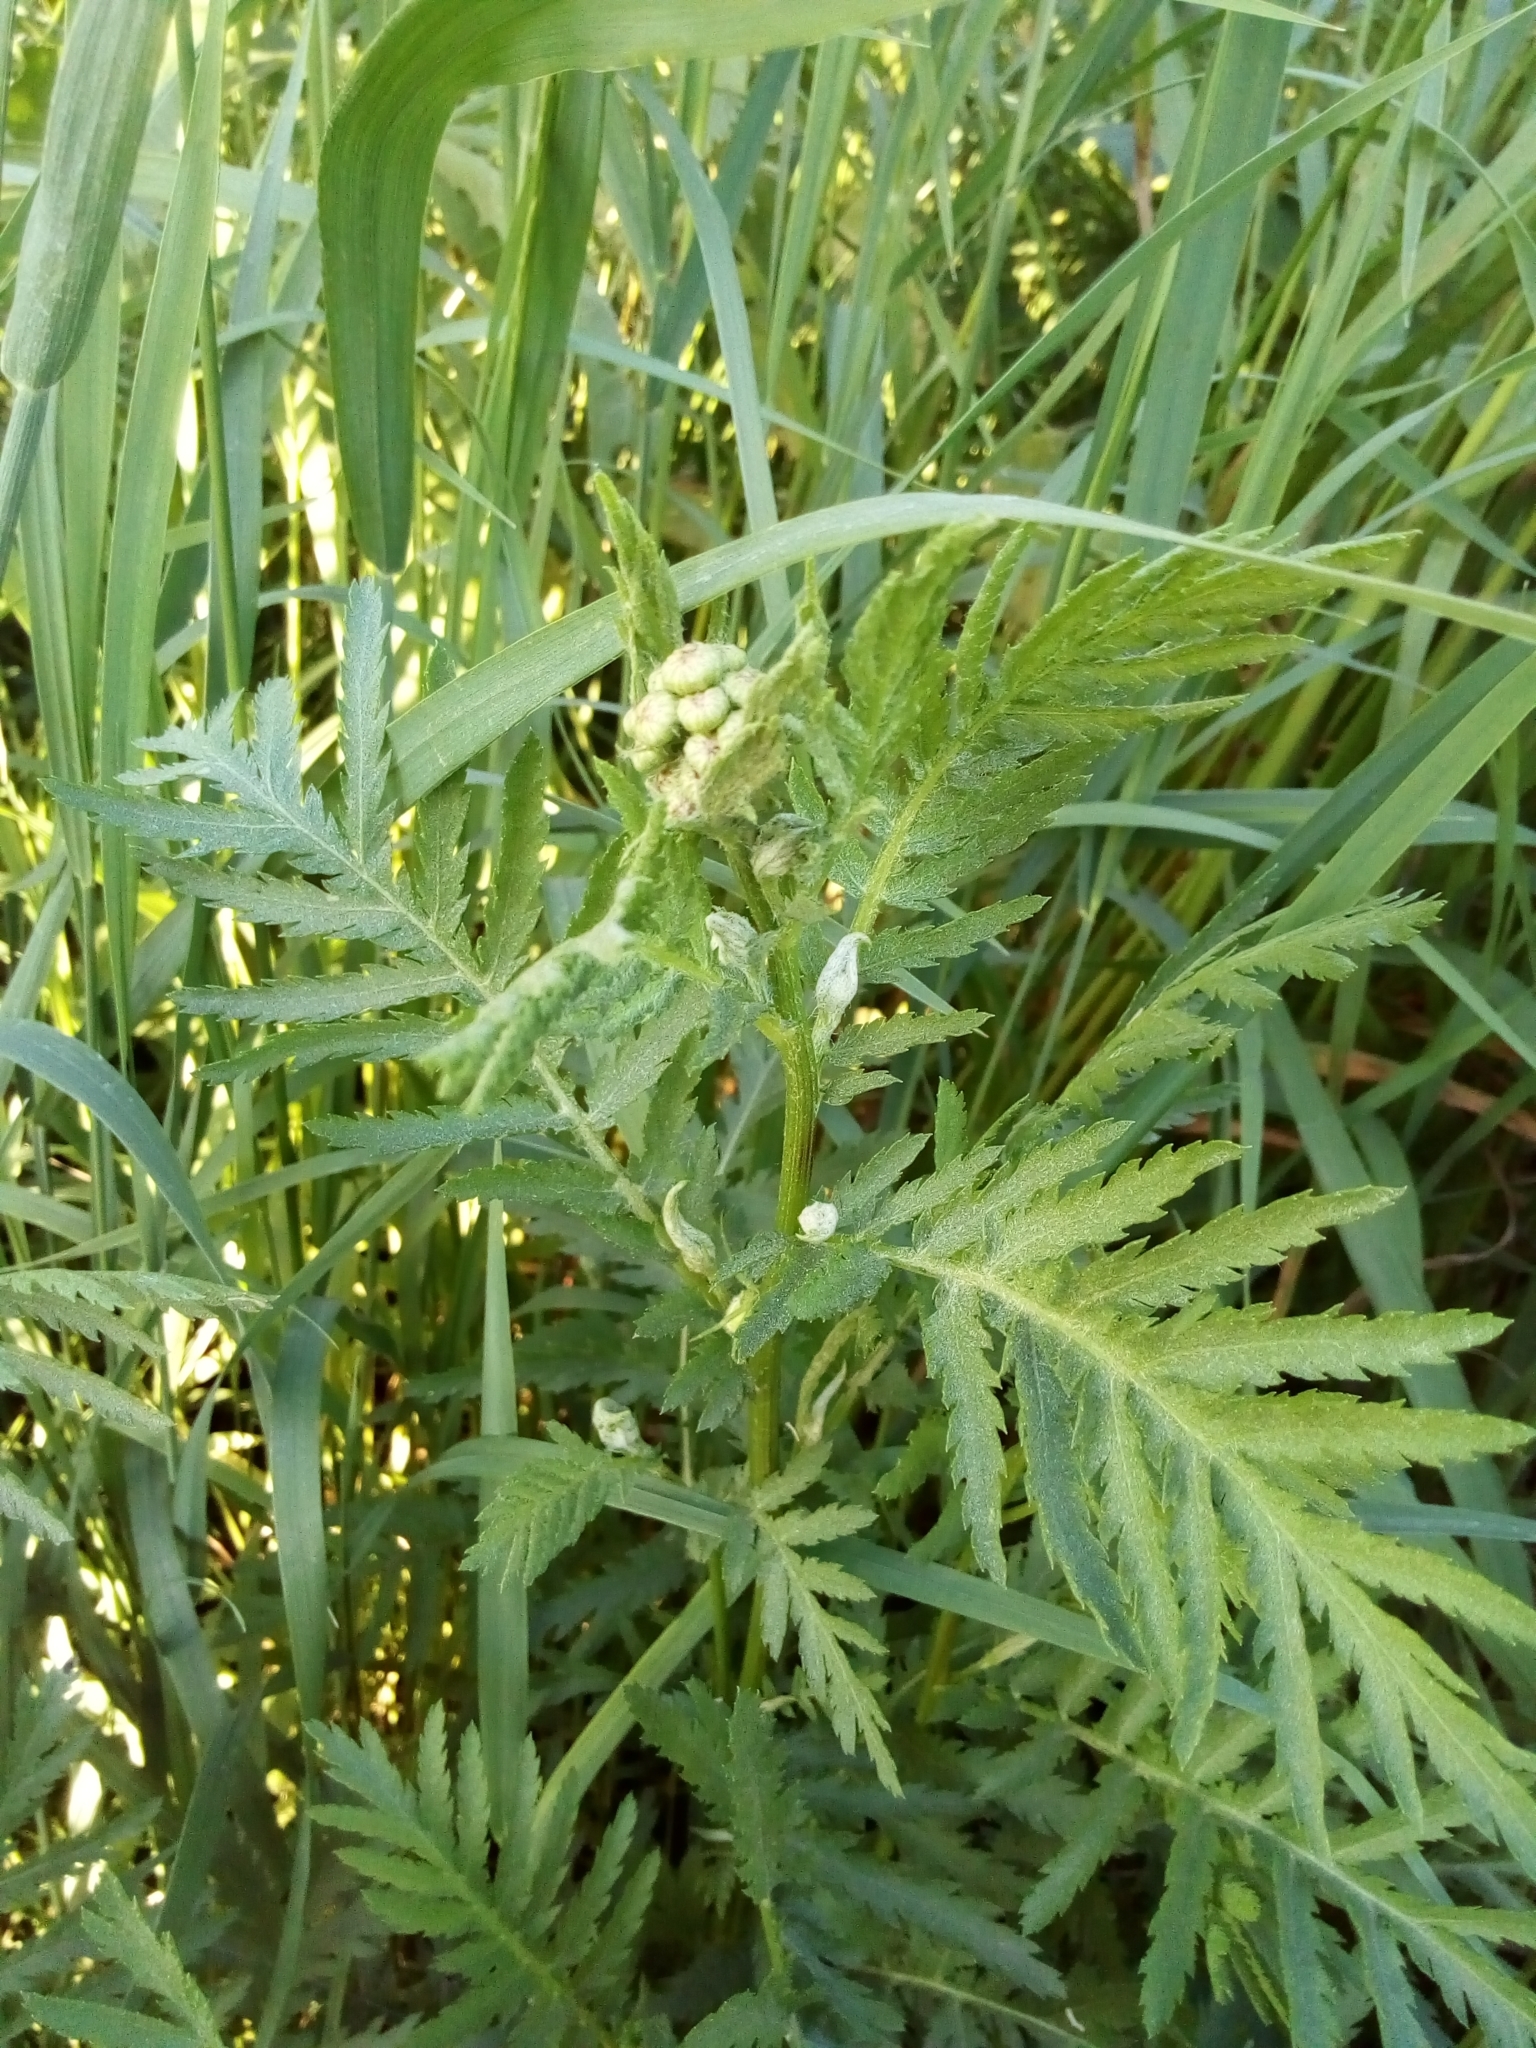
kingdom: Plantae
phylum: Tracheophyta
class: Magnoliopsida
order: Asterales
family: Asteraceae
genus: Tanacetum
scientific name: Tanacetum vulgare
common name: Common tansy
